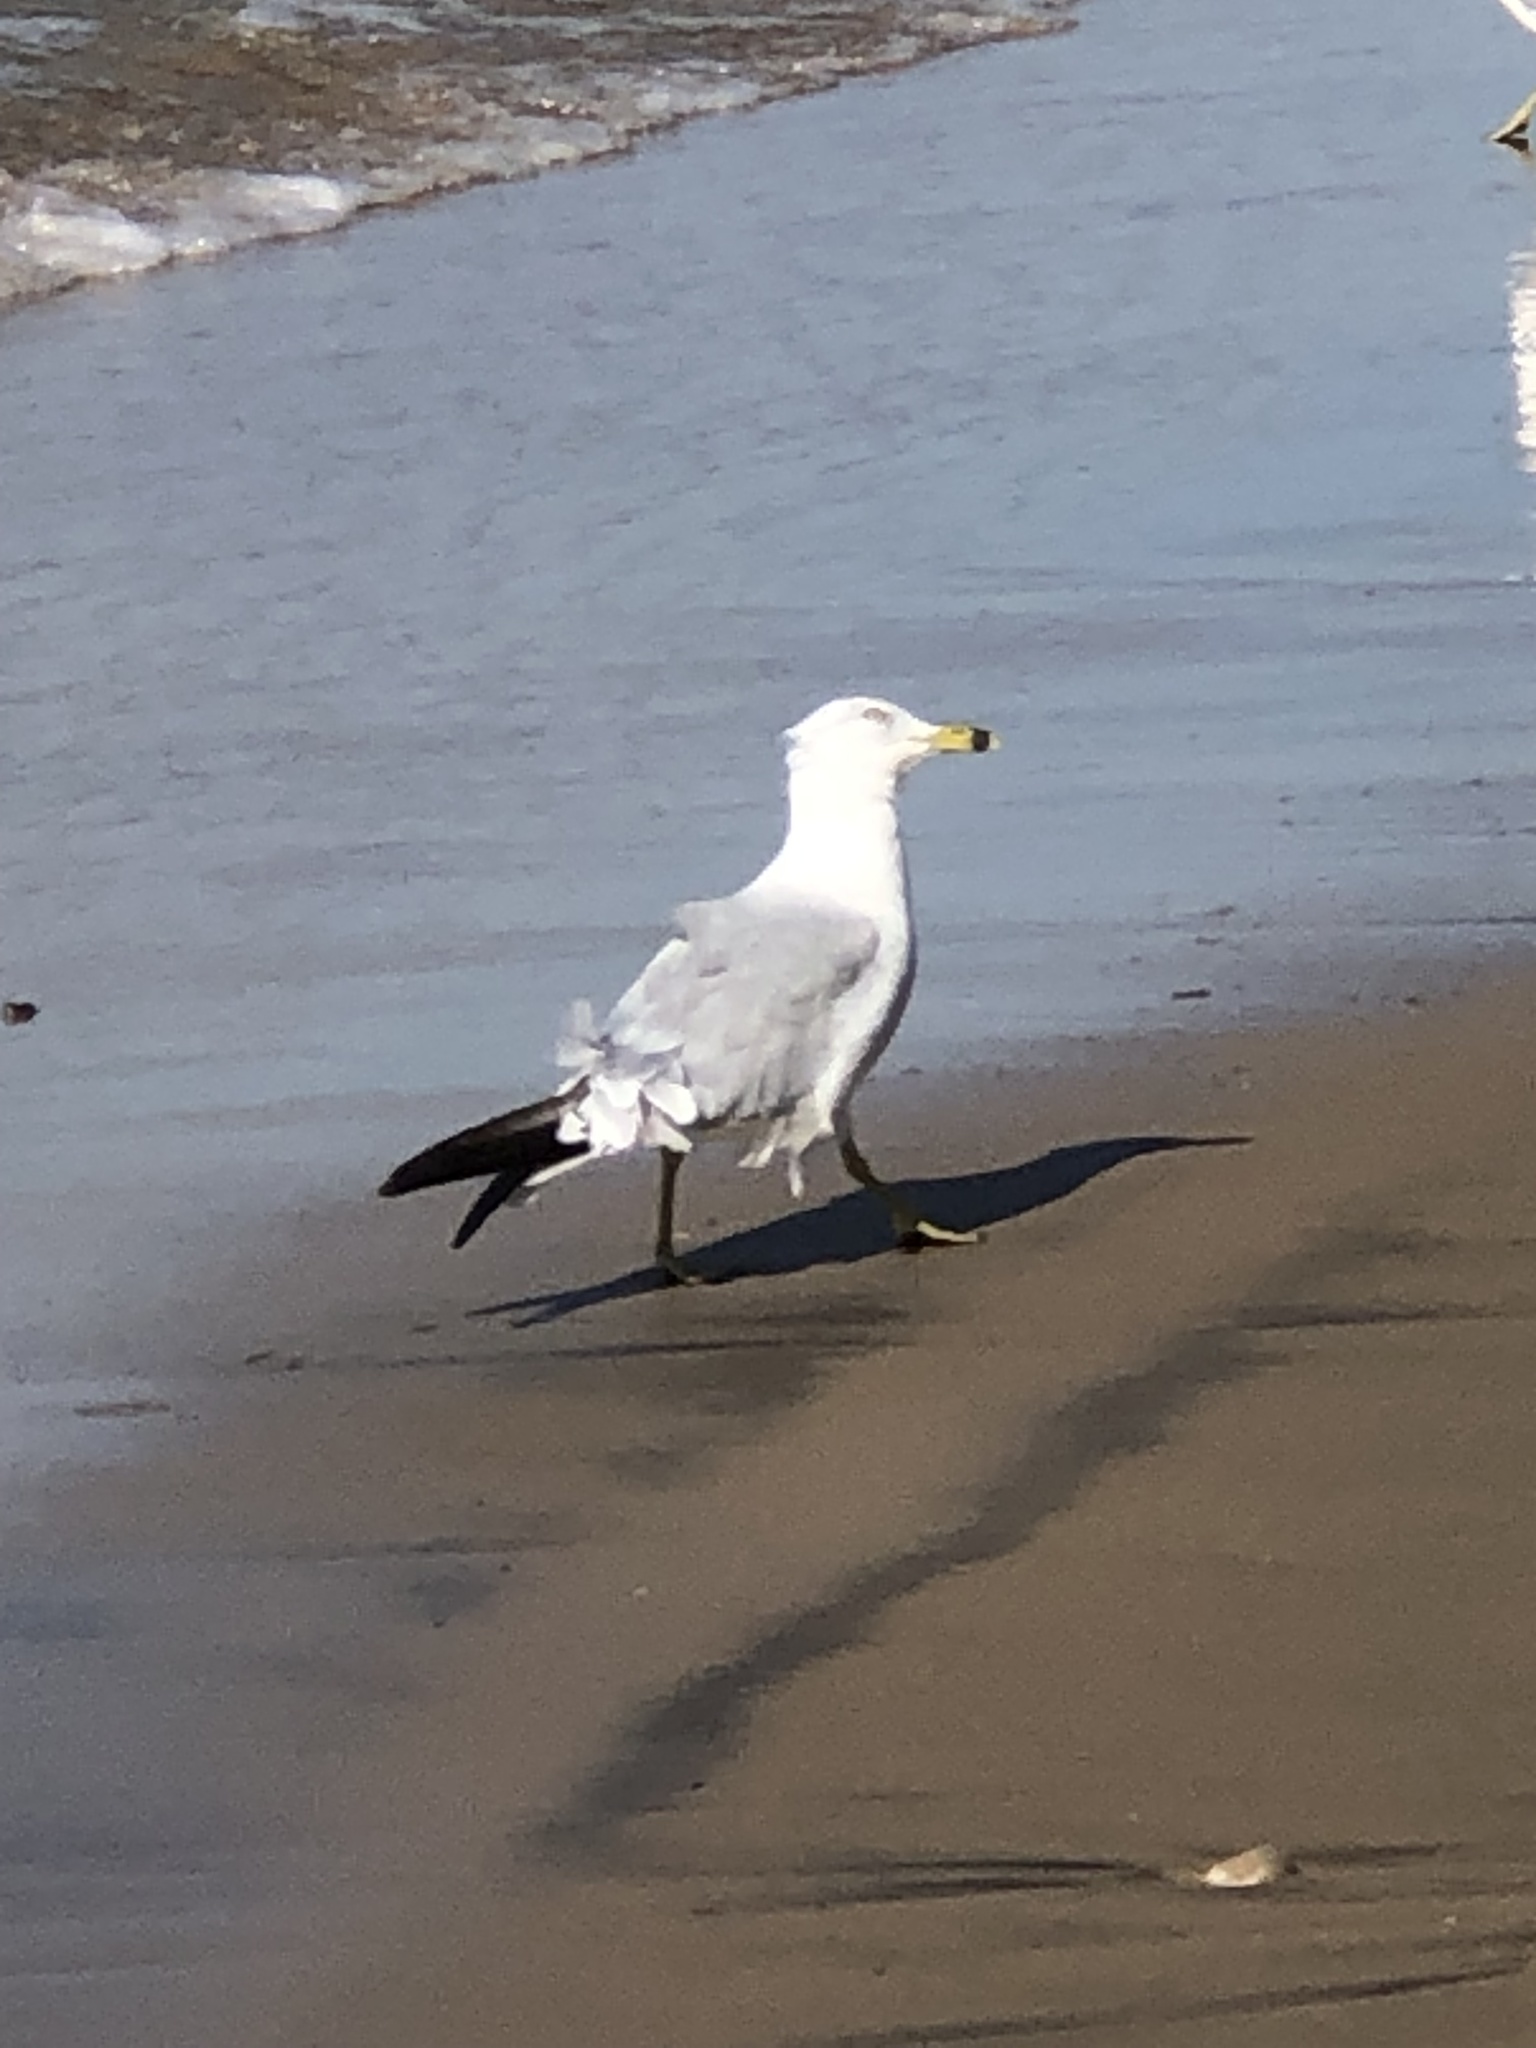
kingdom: Animalia
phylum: Chordata
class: Aves
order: Charadriiformes
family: Laridae
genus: Larus
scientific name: Larus delawarensis
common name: Ring-billed gull
